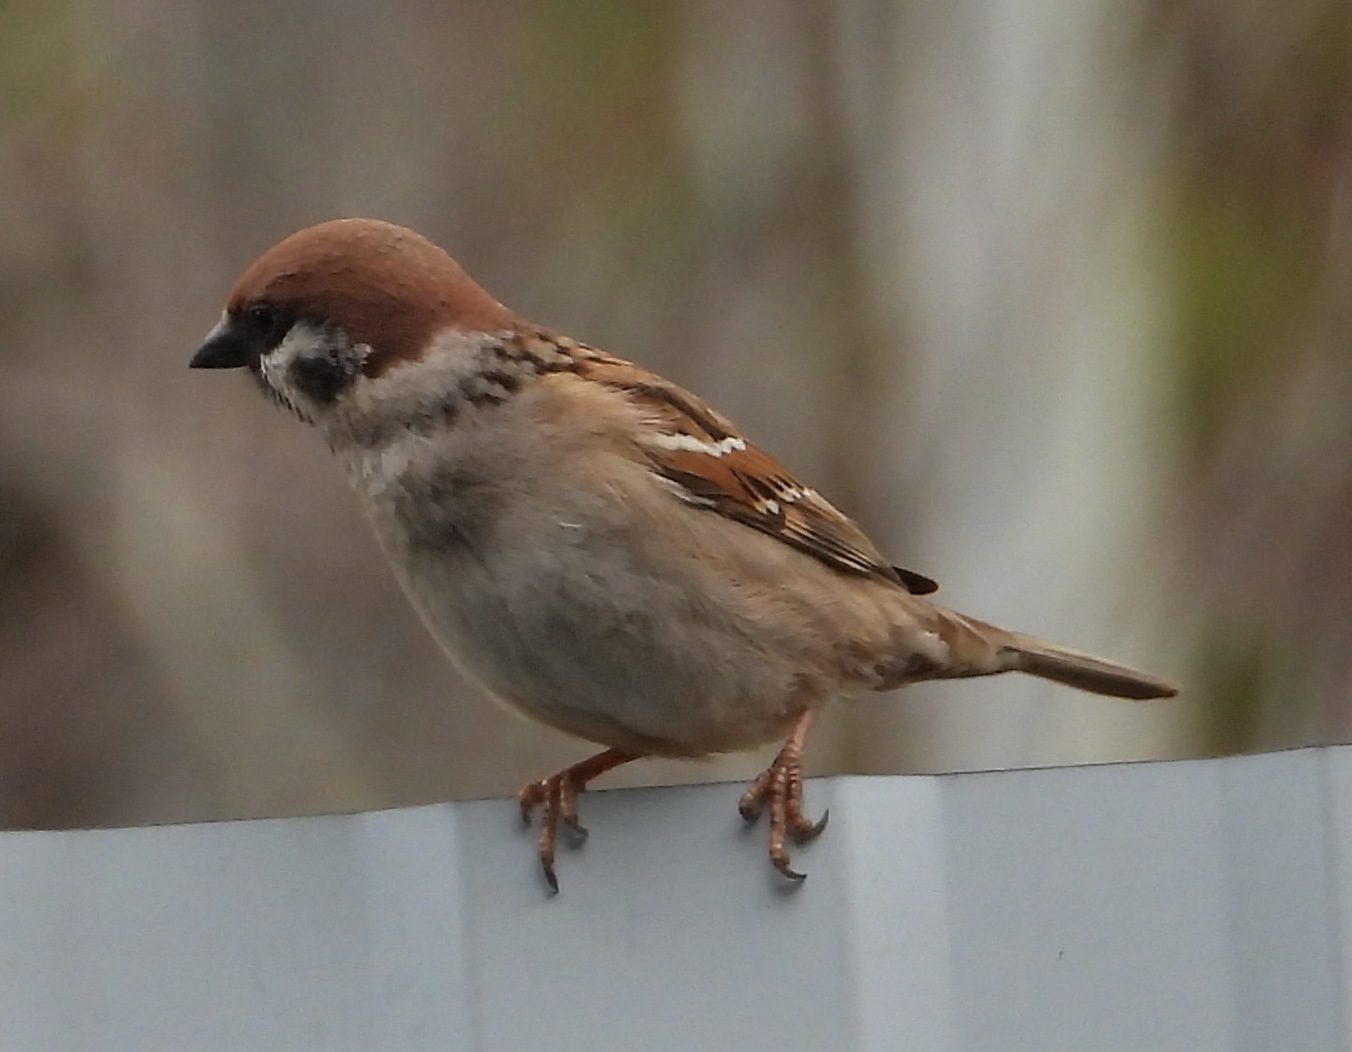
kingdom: Animalia
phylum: Chordata
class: Aves
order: Passeriformes
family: Passeridae
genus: Passer
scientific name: Passer montanus
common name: Eurasian tree sparrow
